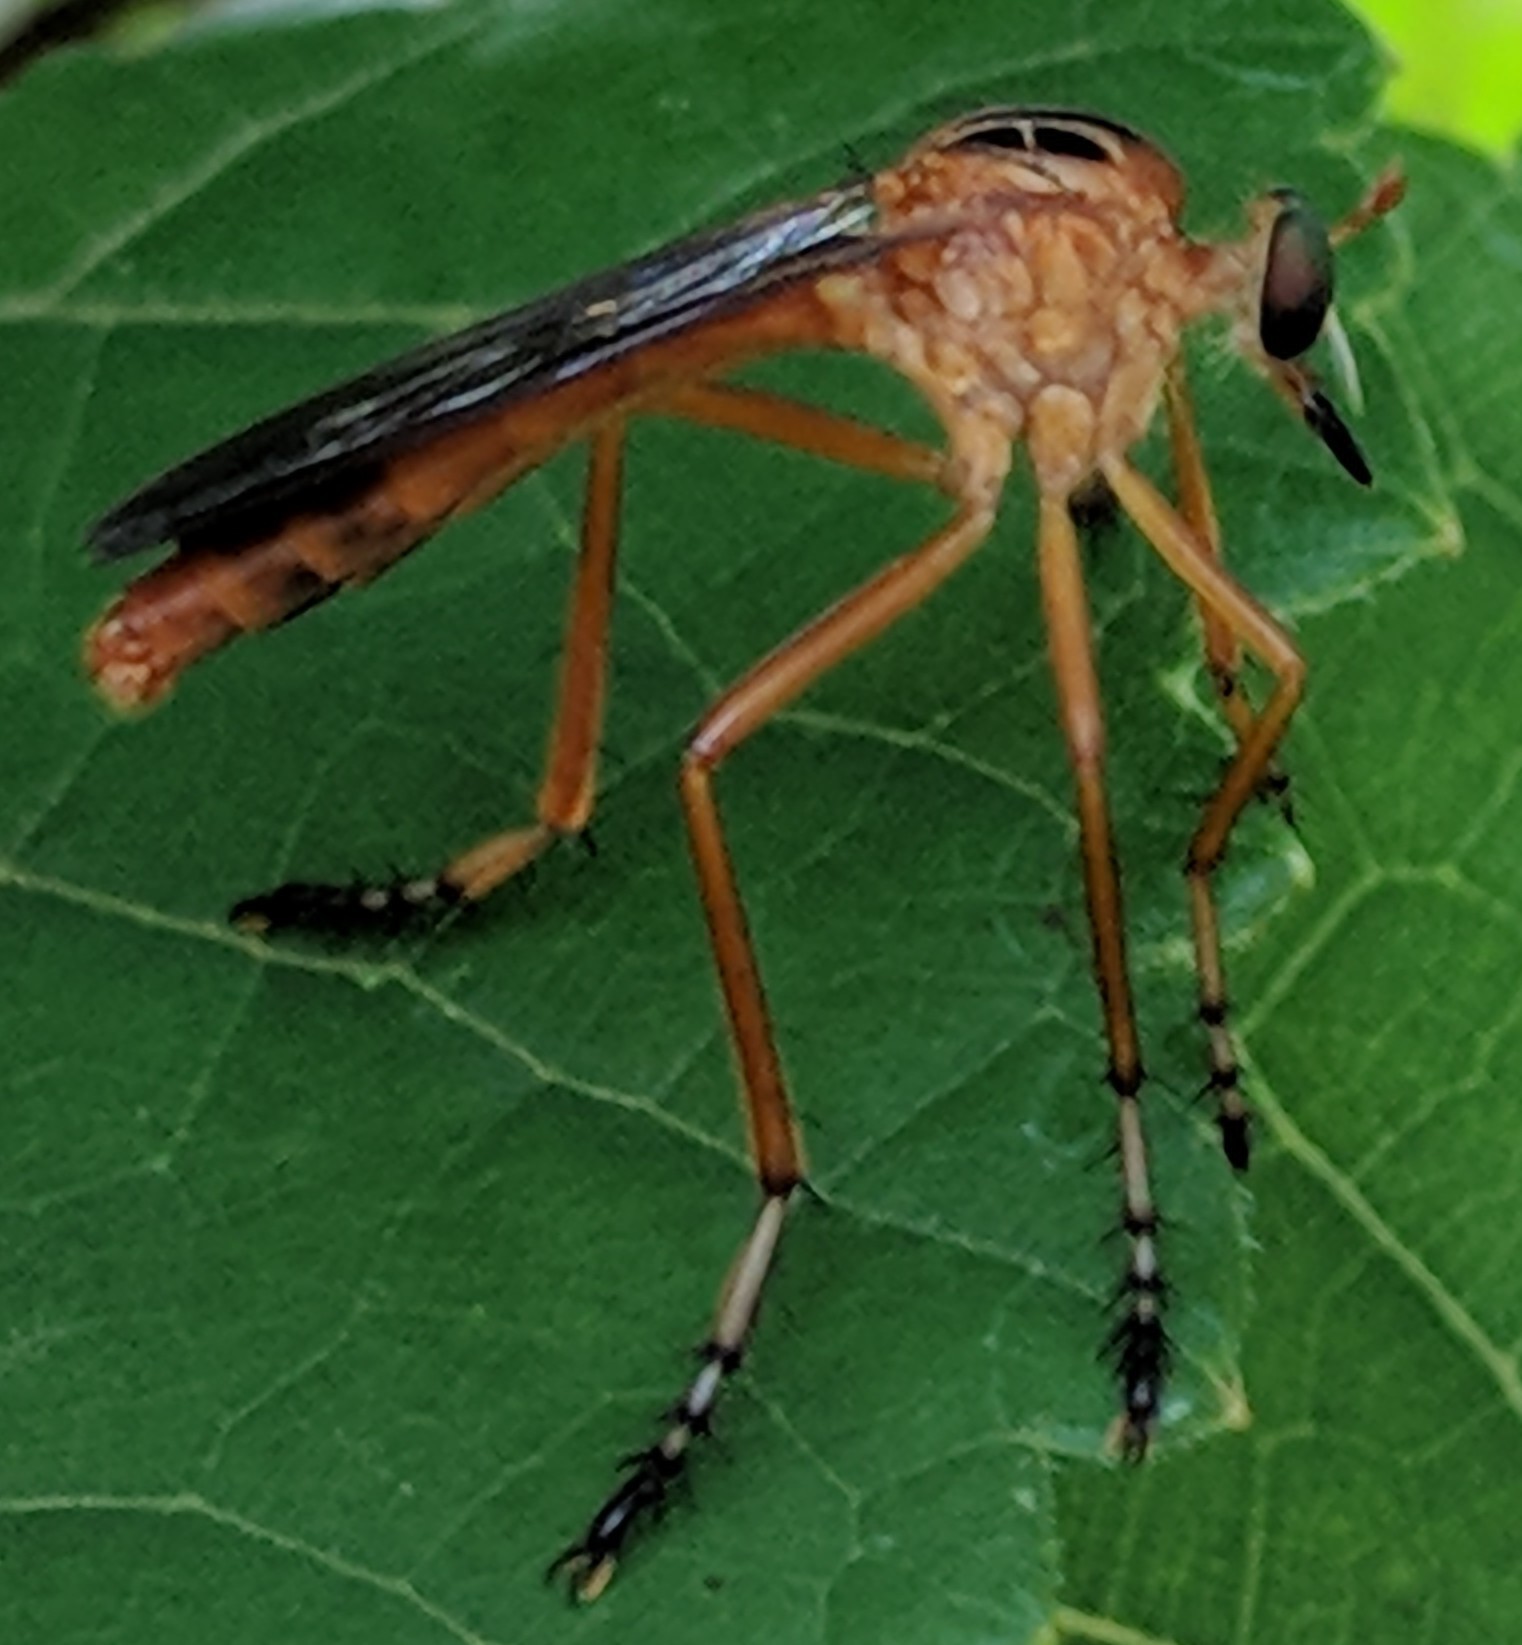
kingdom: Animalia
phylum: Arthropoda
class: Insecta
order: Diptera
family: Asilidae
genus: Diogmites
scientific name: Diogmites
